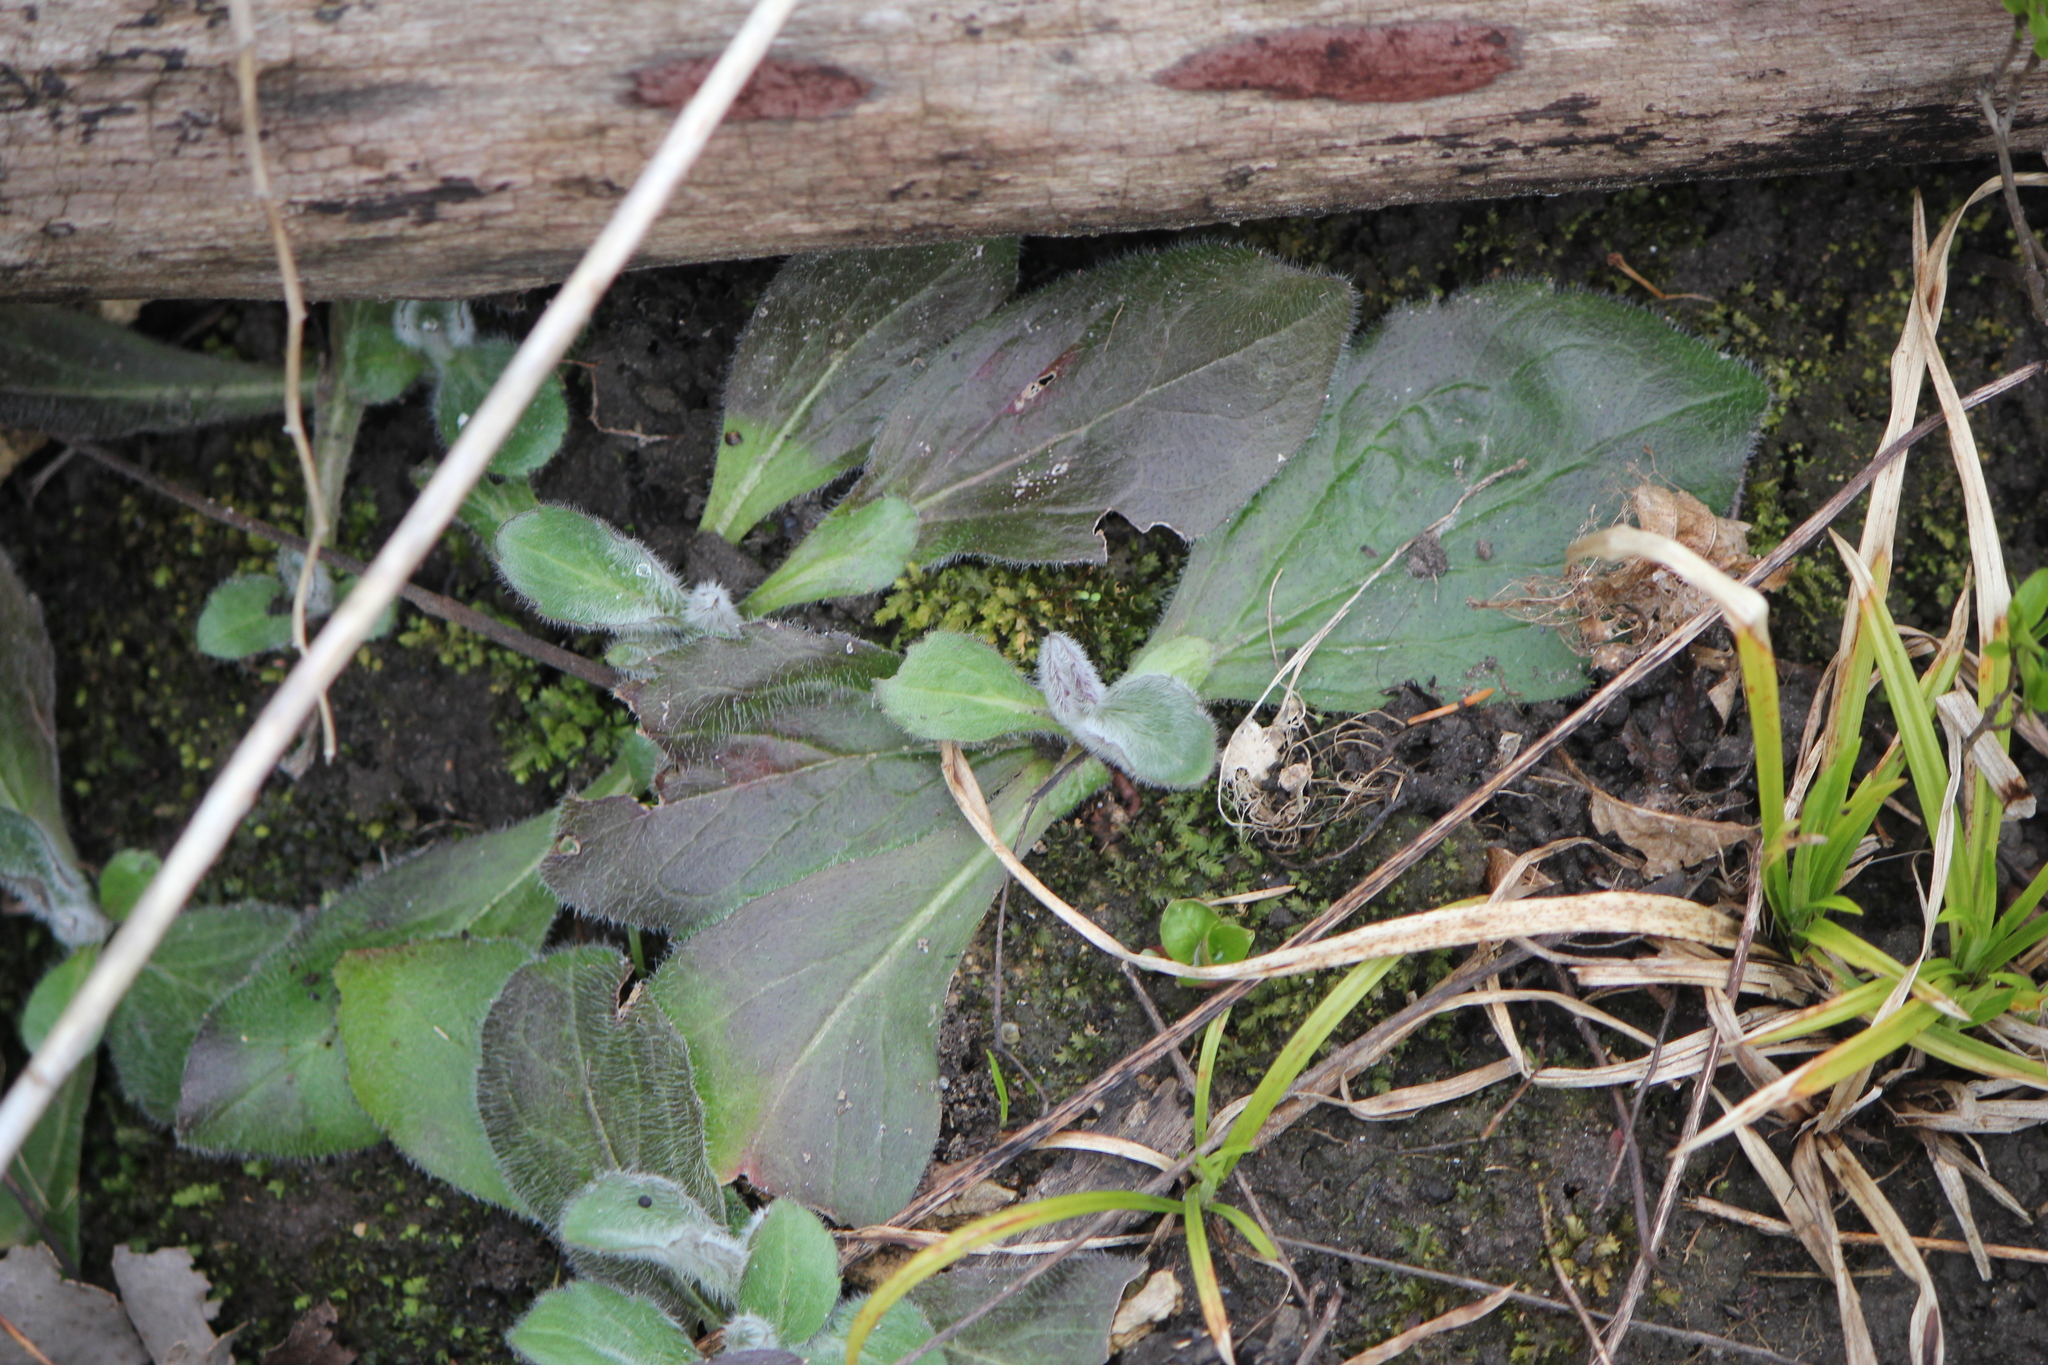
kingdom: Plantae
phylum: Tracheophyta
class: Magnoliopsida
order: Asterales
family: Asteraceae
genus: Erigeron
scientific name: Erigeron pulchellus
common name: Hairy fleabane
